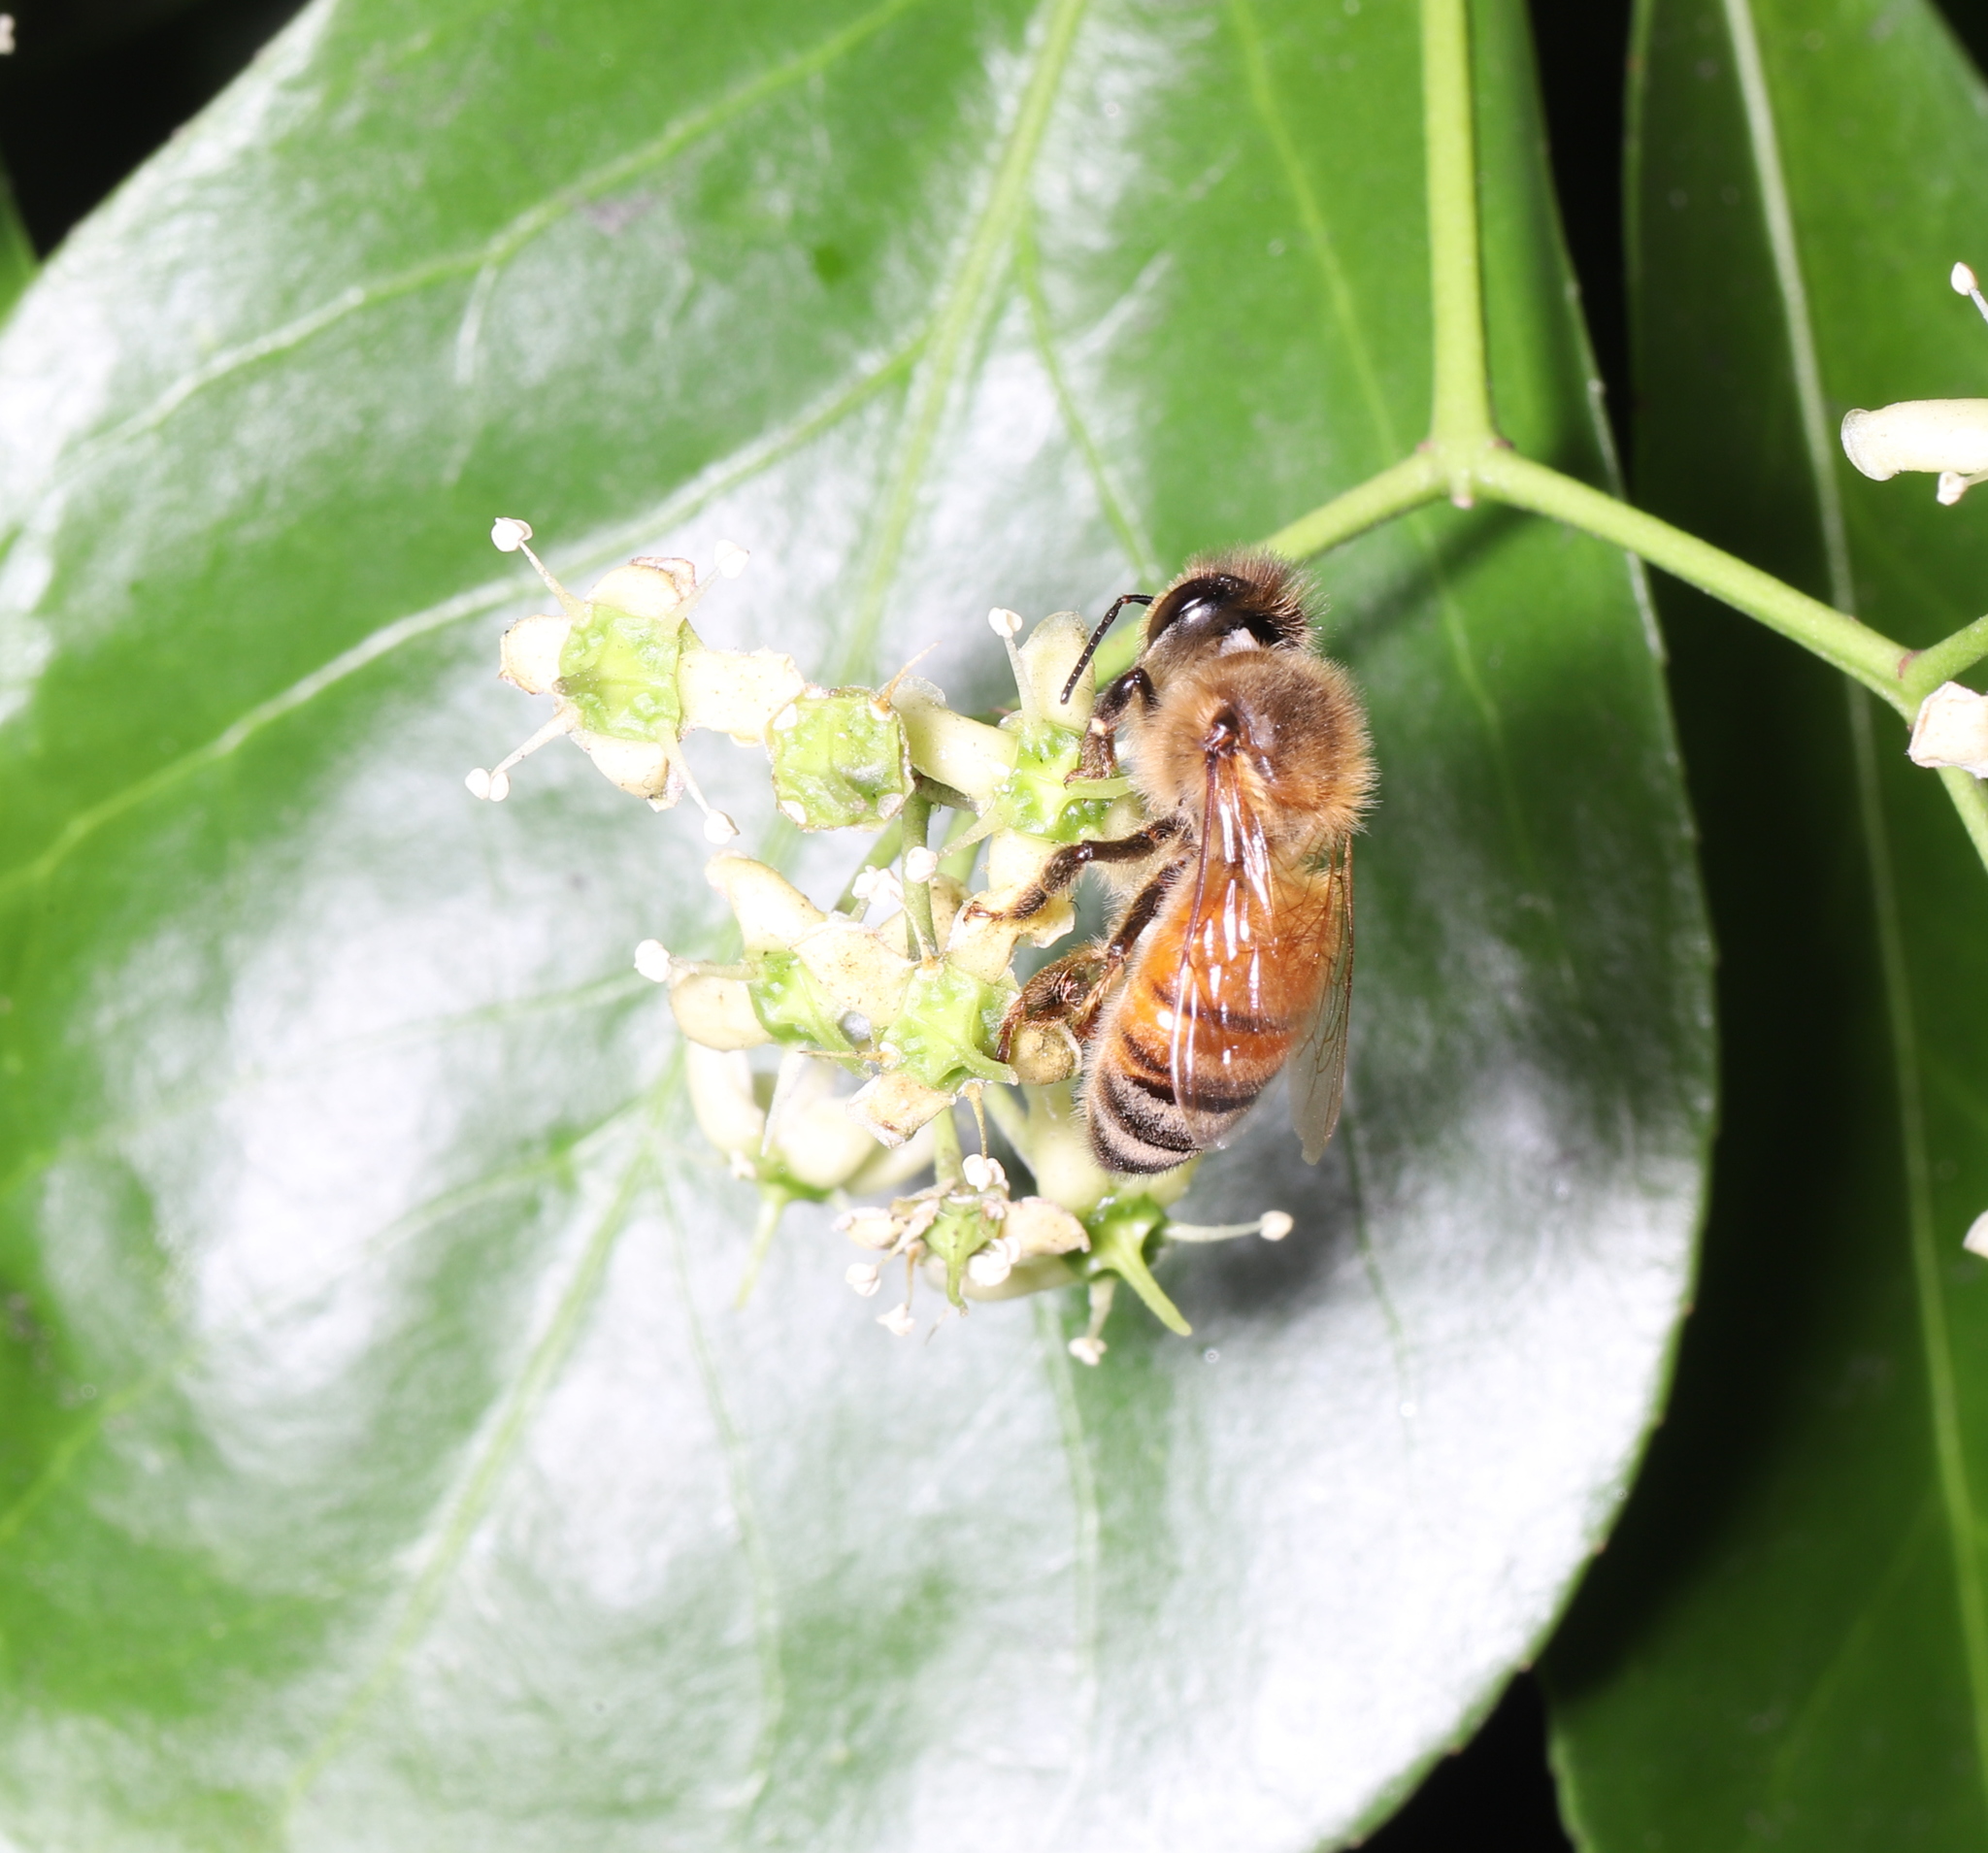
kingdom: Animalia
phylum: Arthropoda
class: Insecta
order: Hymenoptera
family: Apidae
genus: Apis
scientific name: Apis mellifera
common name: Honey bee
